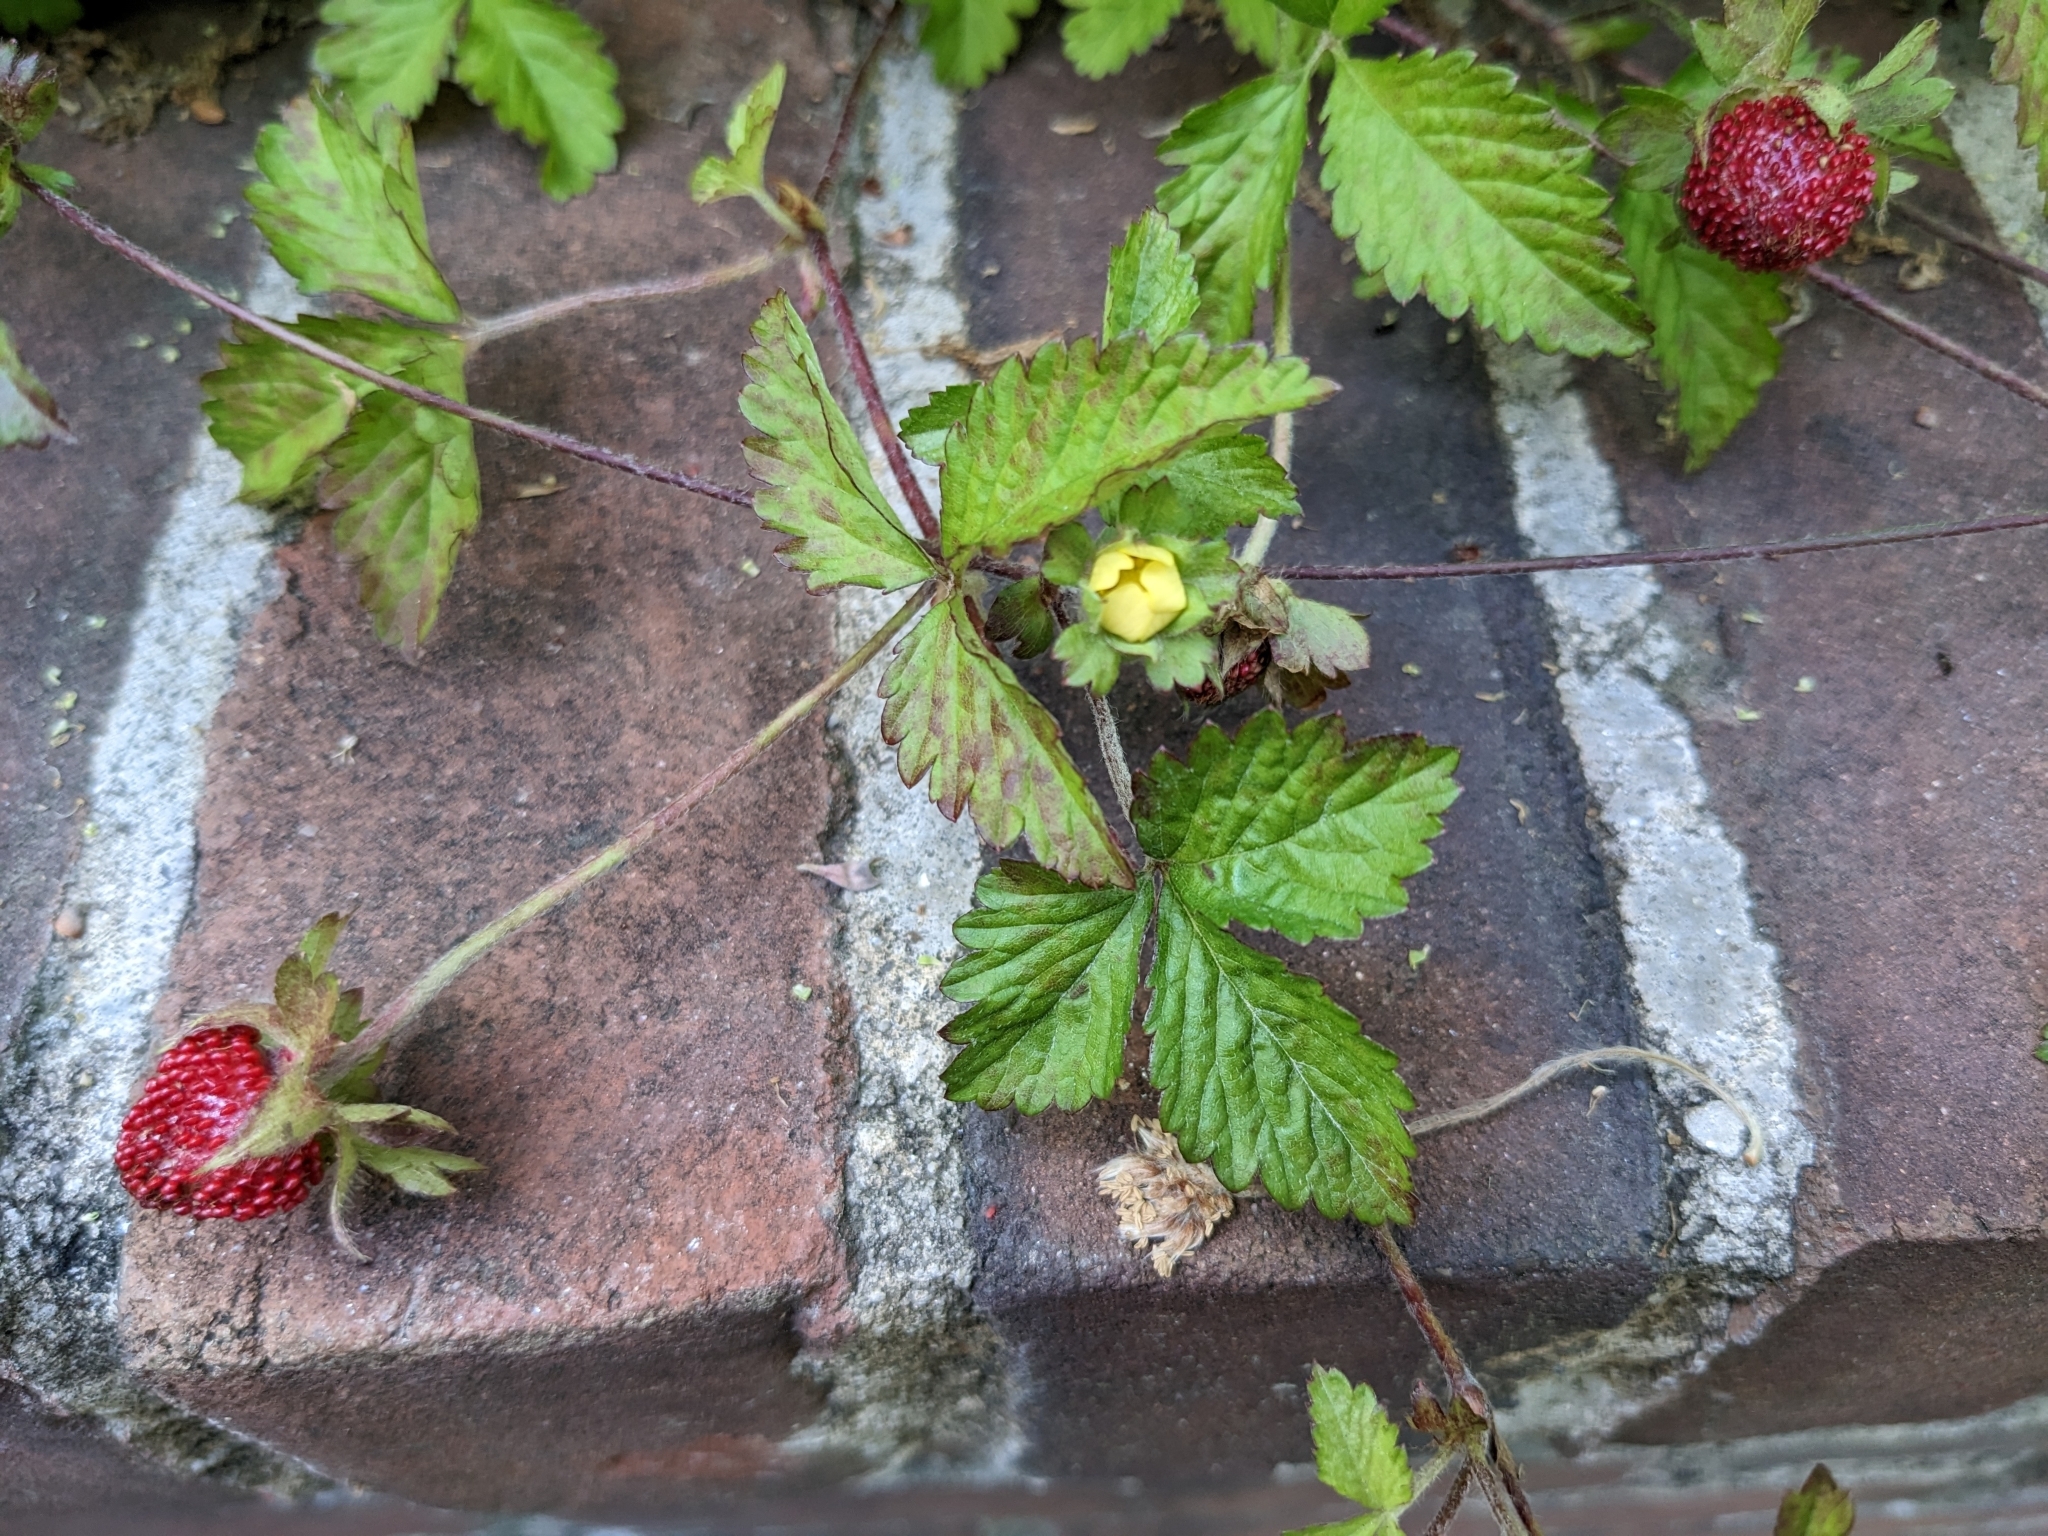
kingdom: Plantae
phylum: Tracheophyta
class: Magnoliopsida
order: Rosales
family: Rosaceae
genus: Potentilla
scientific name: Potentilla indica
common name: Yellow-flowered strawberry
